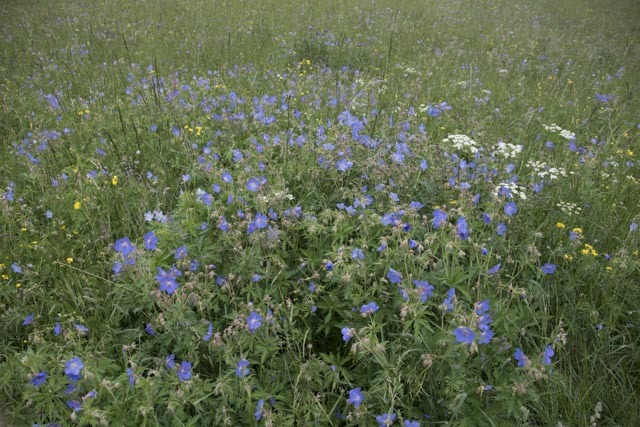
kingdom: Plantae
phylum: Tracheophyta
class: Magnoliopsida
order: Geraniales
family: Geraniaceae
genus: Geranium
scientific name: Geranium pratense
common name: Meadow crane's-bill
